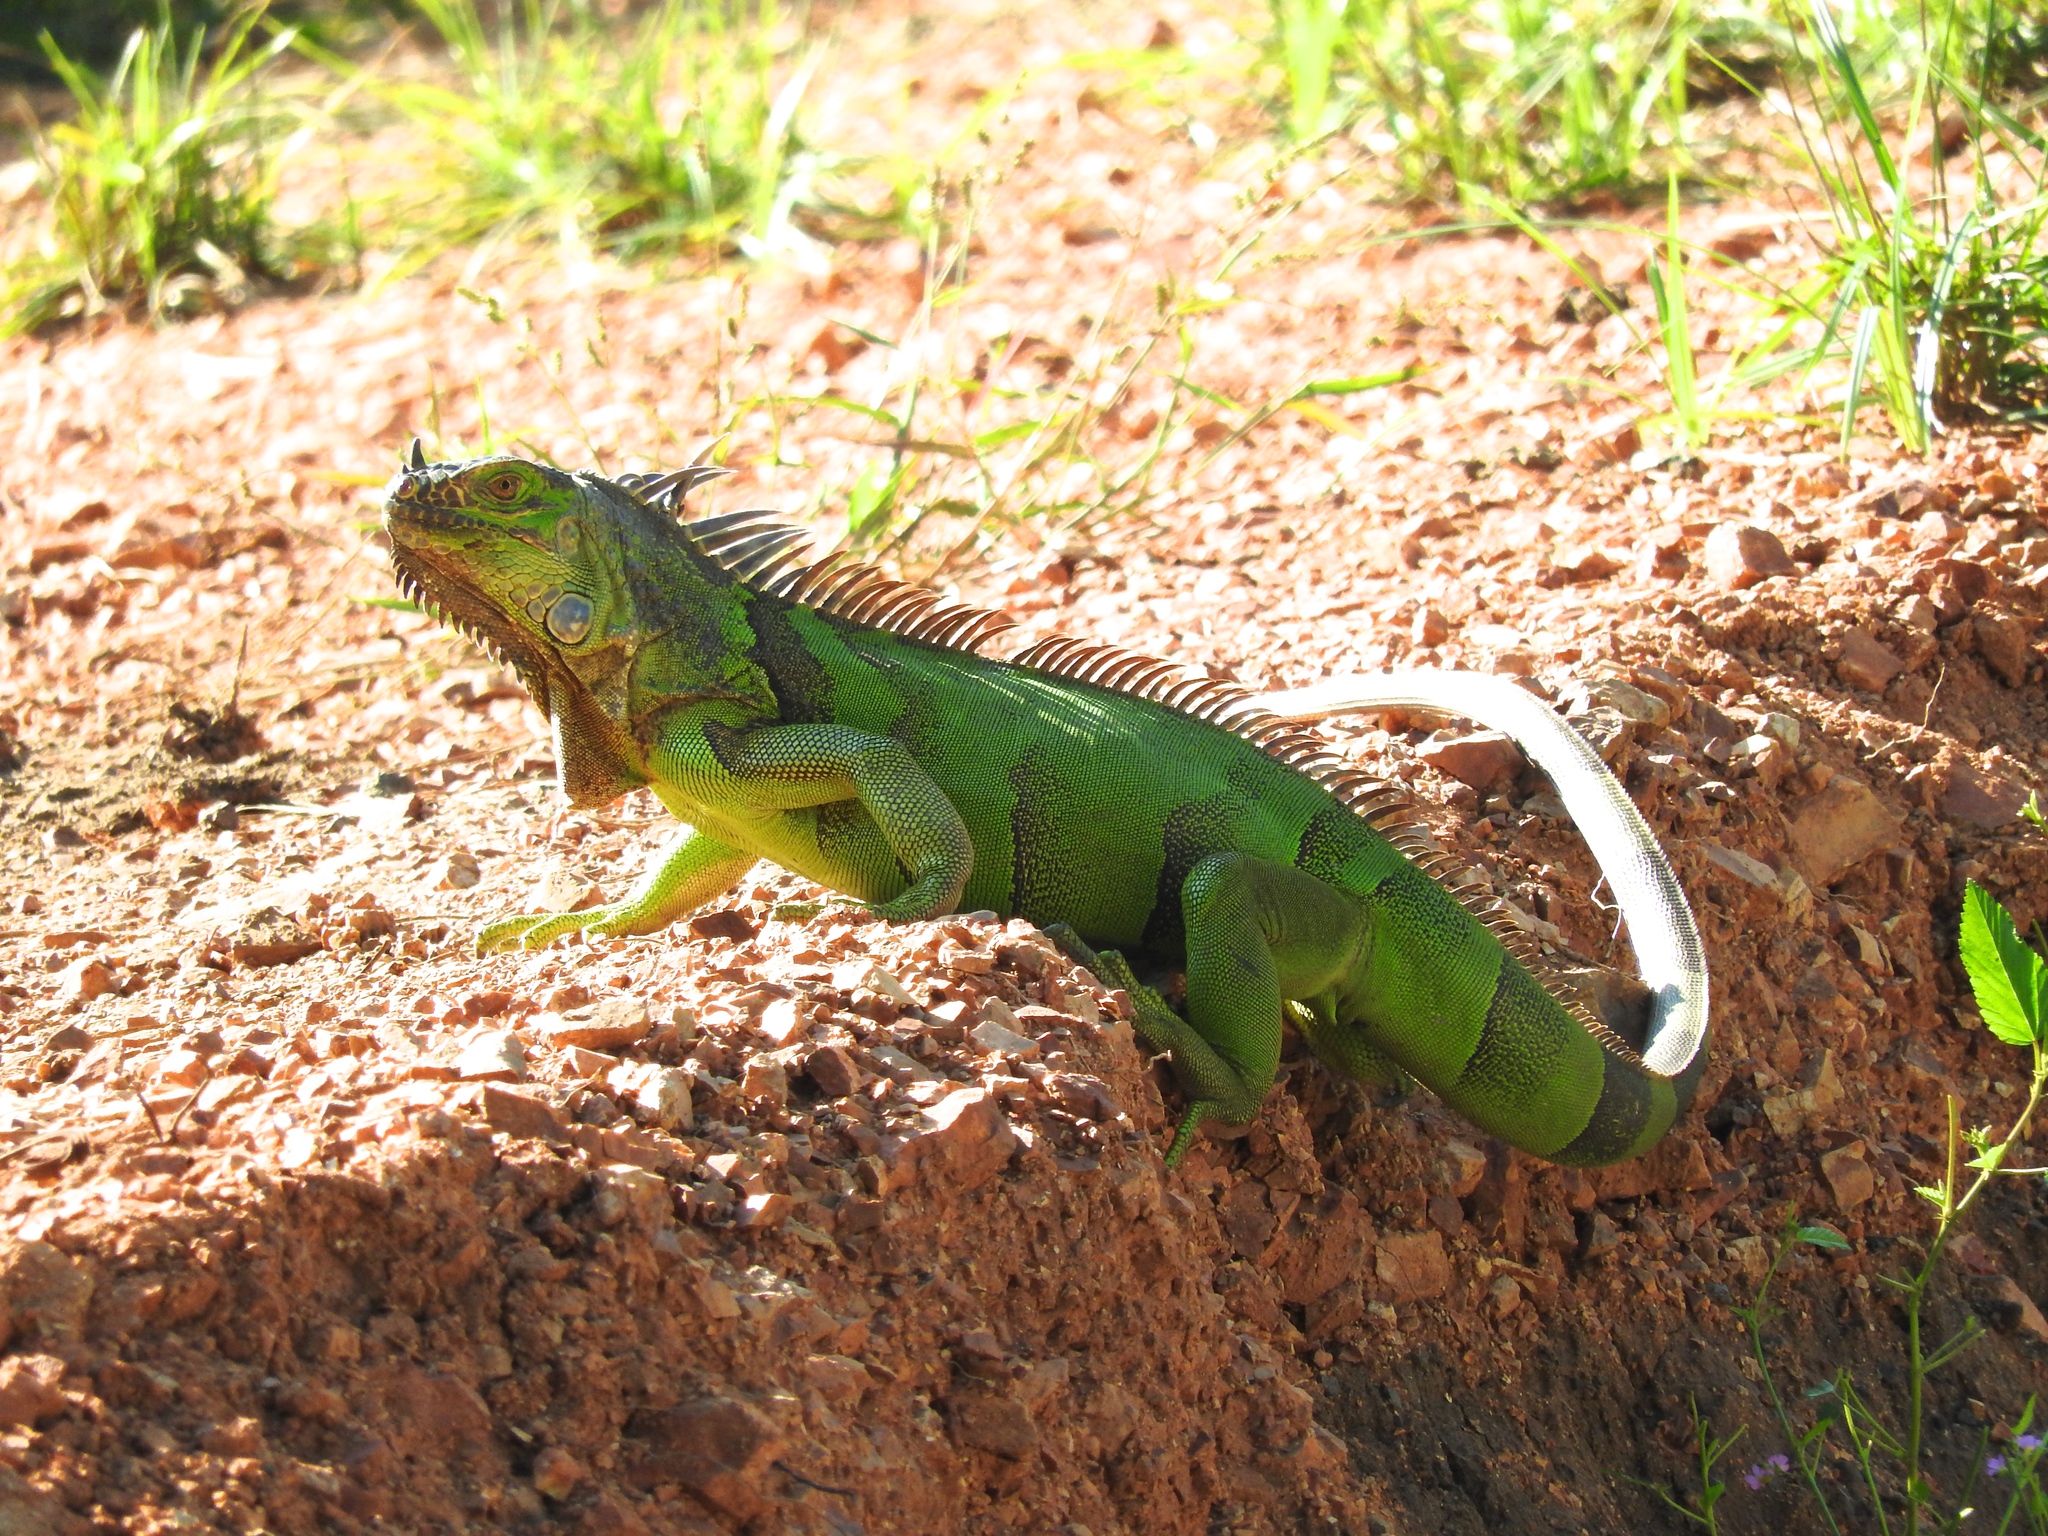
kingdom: Animalia
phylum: Chordata
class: Squamata
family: Iguanidae
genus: Iguana
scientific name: Iguana iguana
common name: Green iguana
